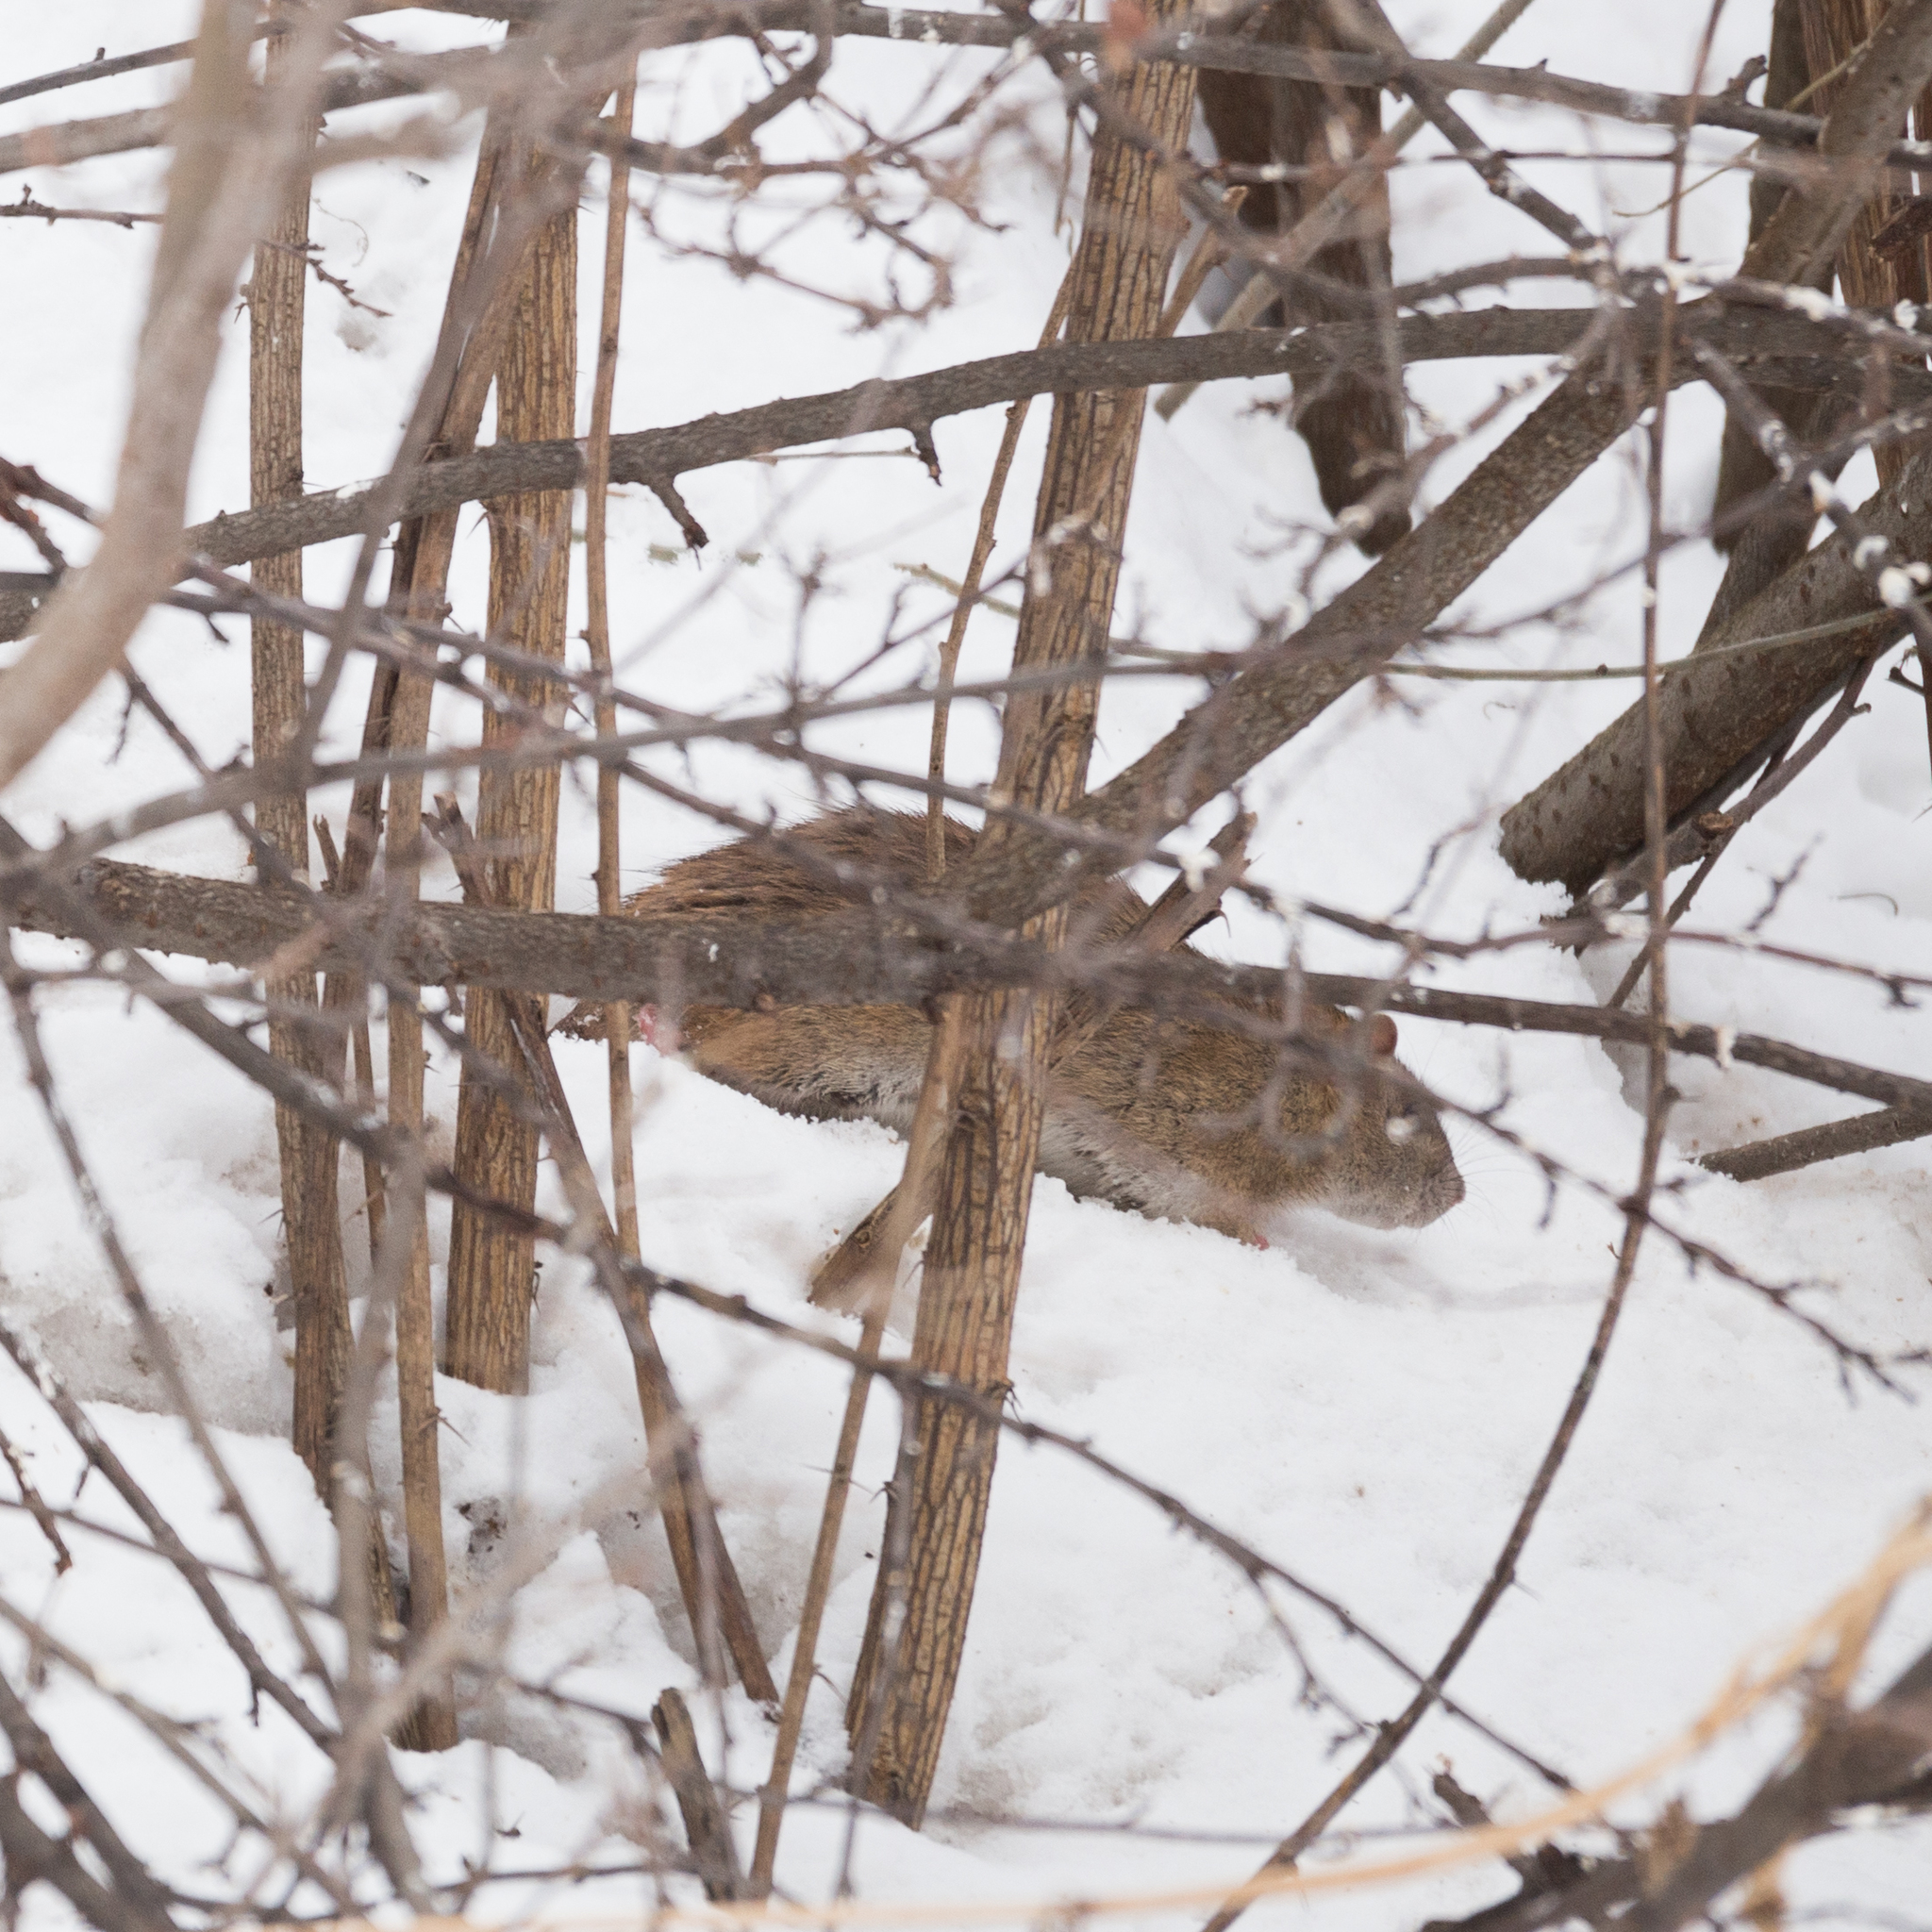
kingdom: Animalia
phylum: Chordata
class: Mammalia
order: Rodentia
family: Muridae
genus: Rattus
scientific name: Rattus norvegicus
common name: Brown rat
